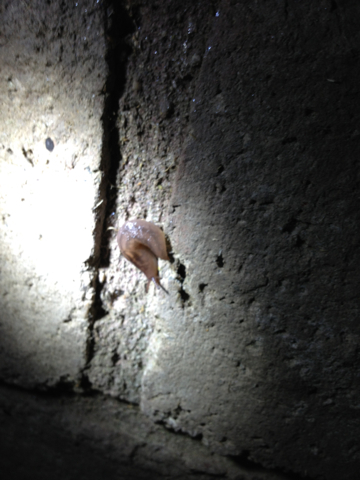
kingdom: Animalia
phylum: Mollusca
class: Gastropoda
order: Stylommatophora
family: Limacidae
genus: Ambigolimax
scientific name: Ambigolimax
